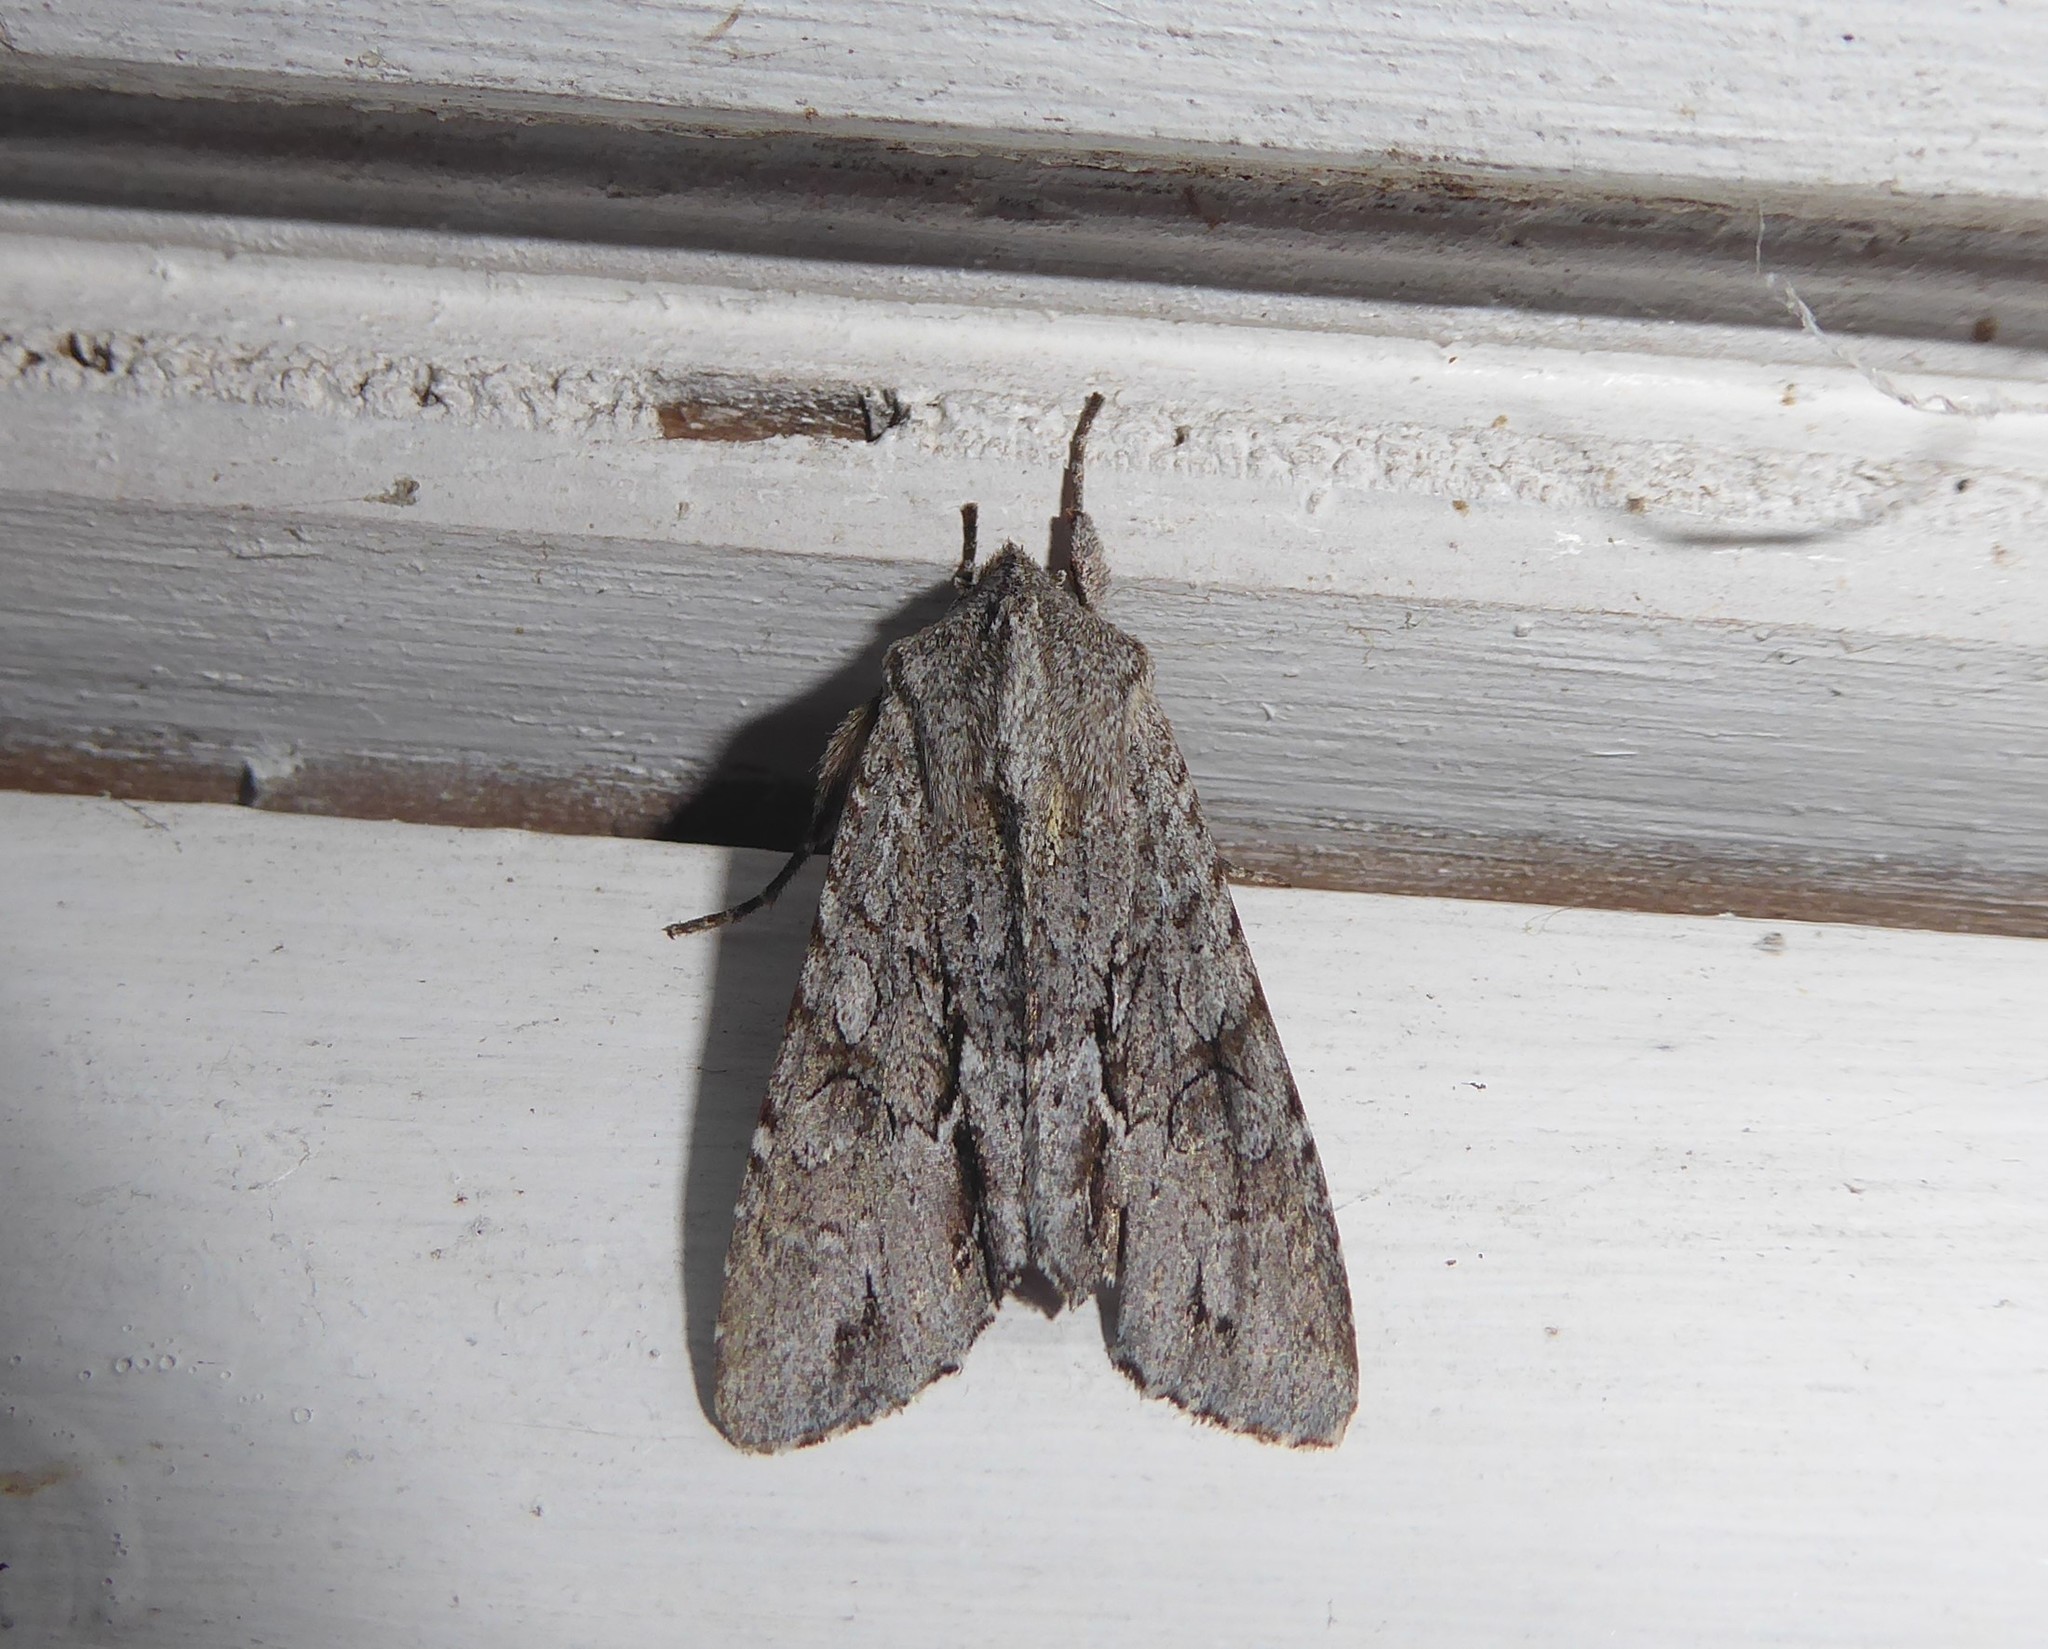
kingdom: Animalia
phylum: Arthropoda
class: Insecta
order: Lepidoptera
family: Noctuidae
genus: Ichneutica
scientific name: Ichneutica
